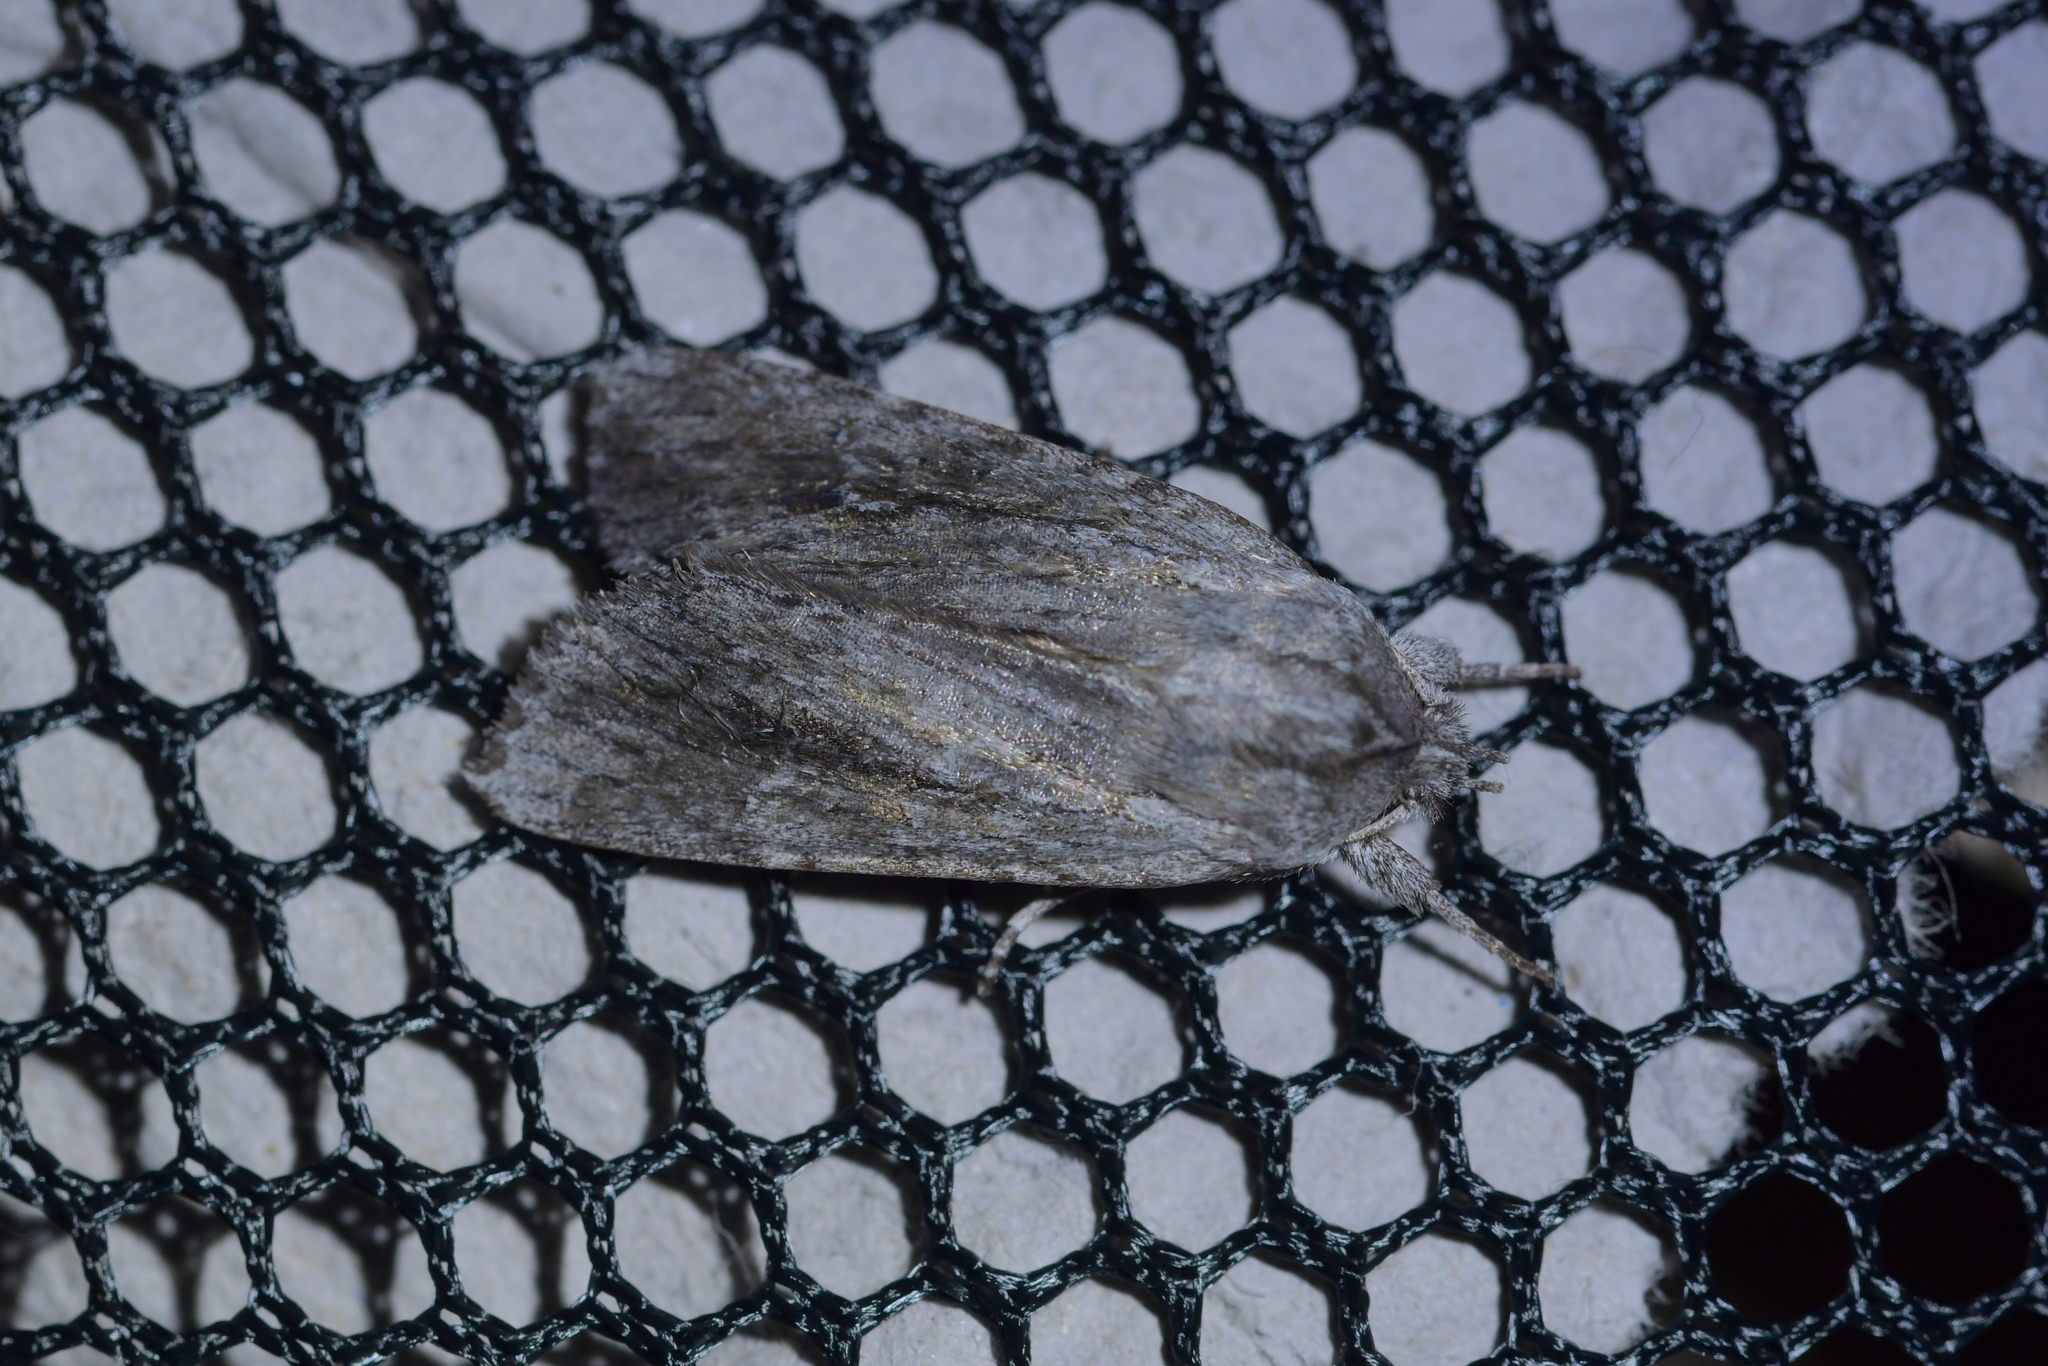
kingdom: Animalia
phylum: Arthropoda
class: Insecta
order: Lepidoptera
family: Noctuidae
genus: Physetica
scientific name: Physetica sequens
